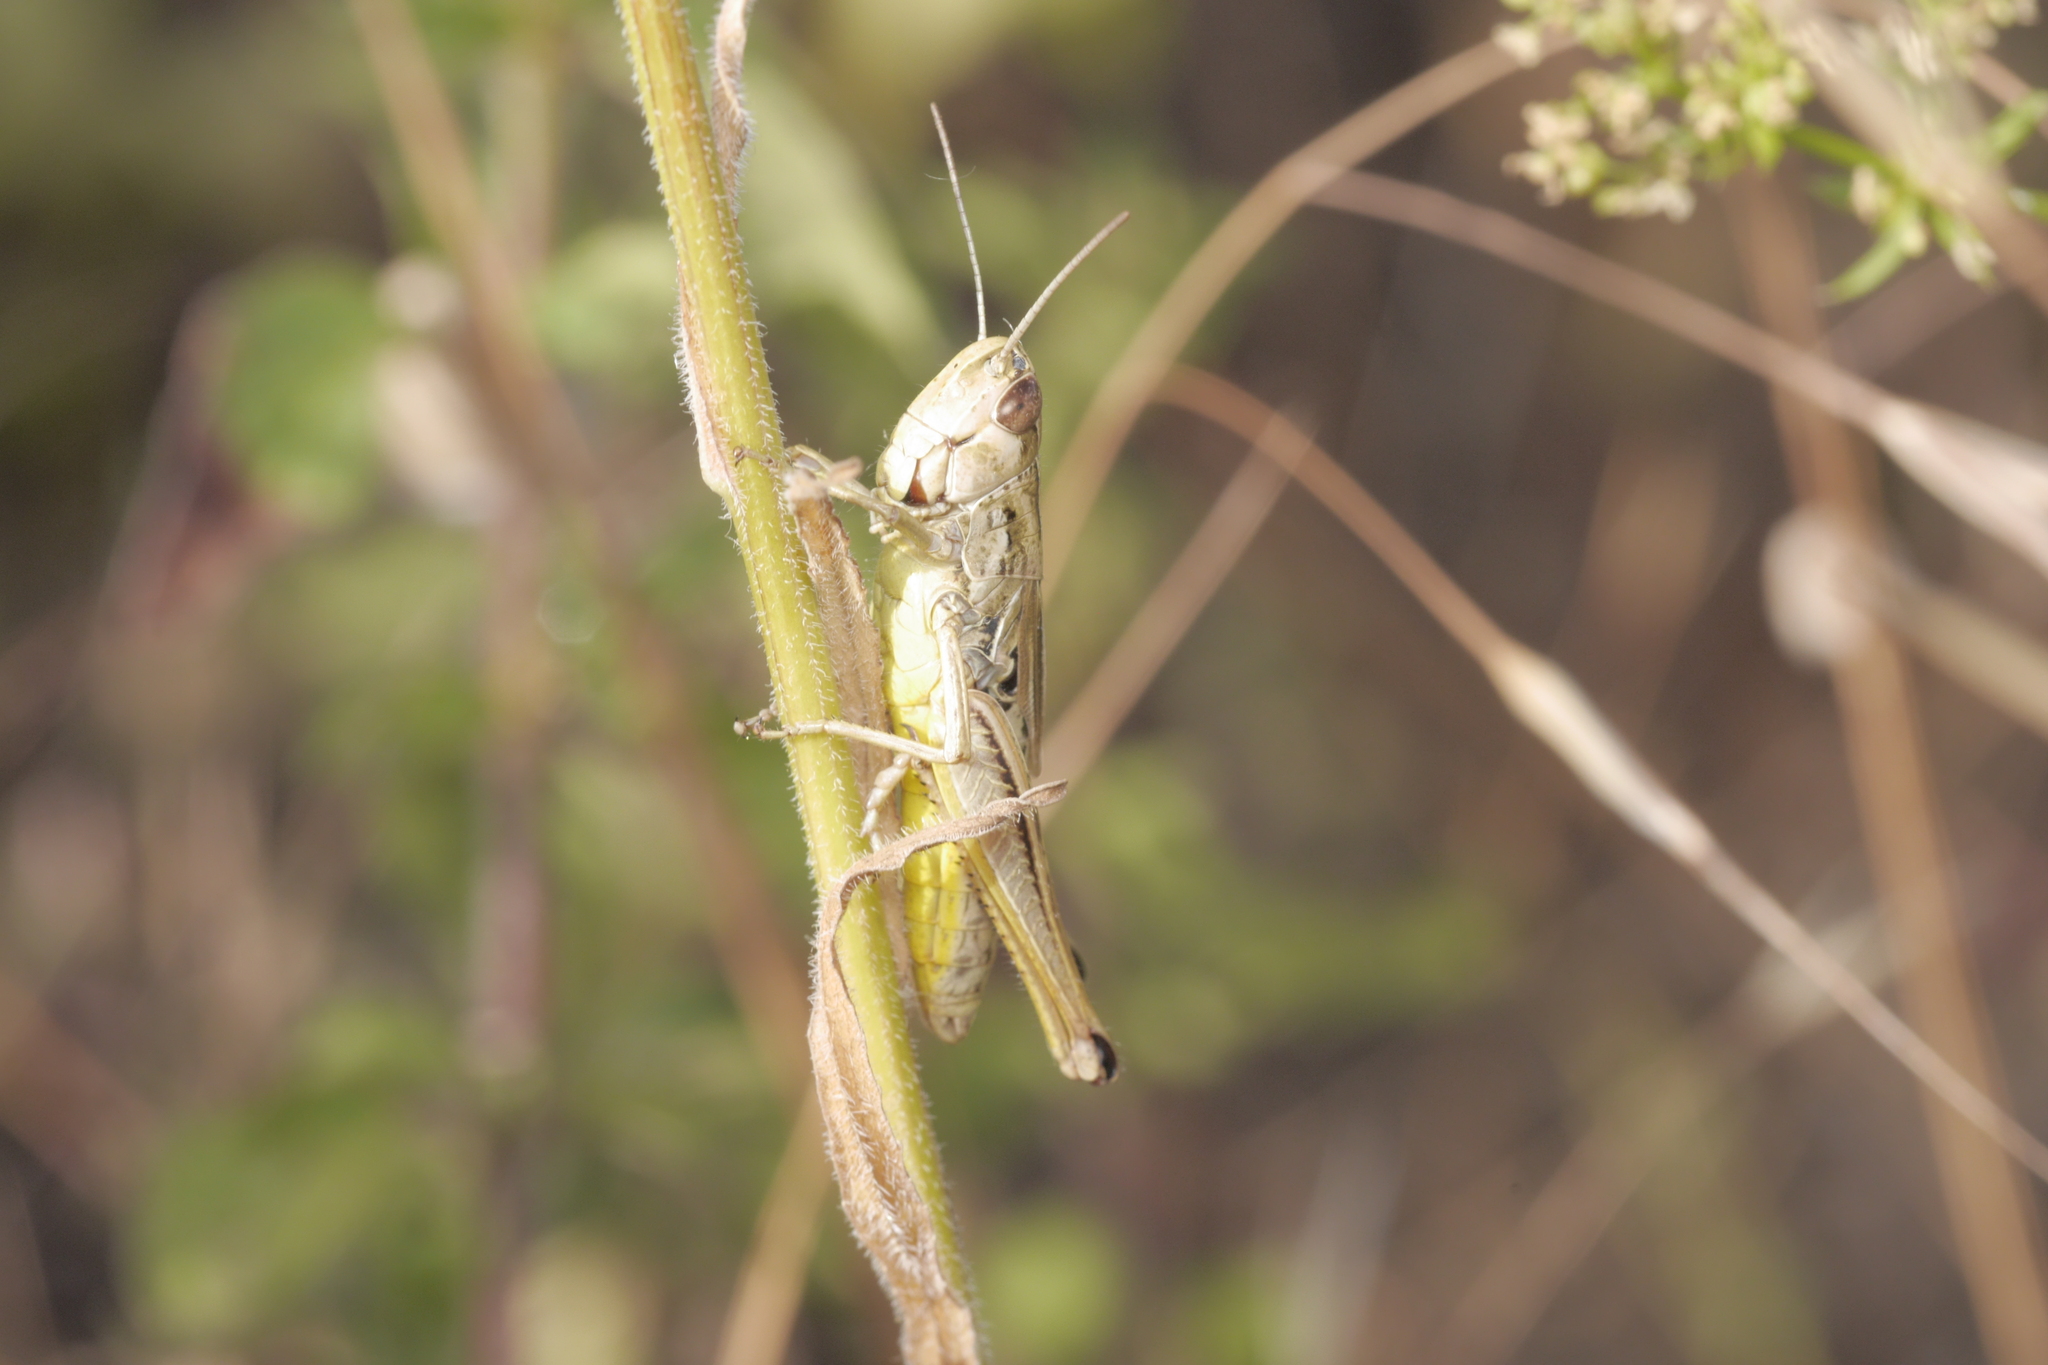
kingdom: Animalia
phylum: Arthropoda
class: Insecta
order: Orthoptera
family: Acrididae
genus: Pseudochorthippus
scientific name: Pseudochorthippus parallelus
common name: Meadow grasshopper
